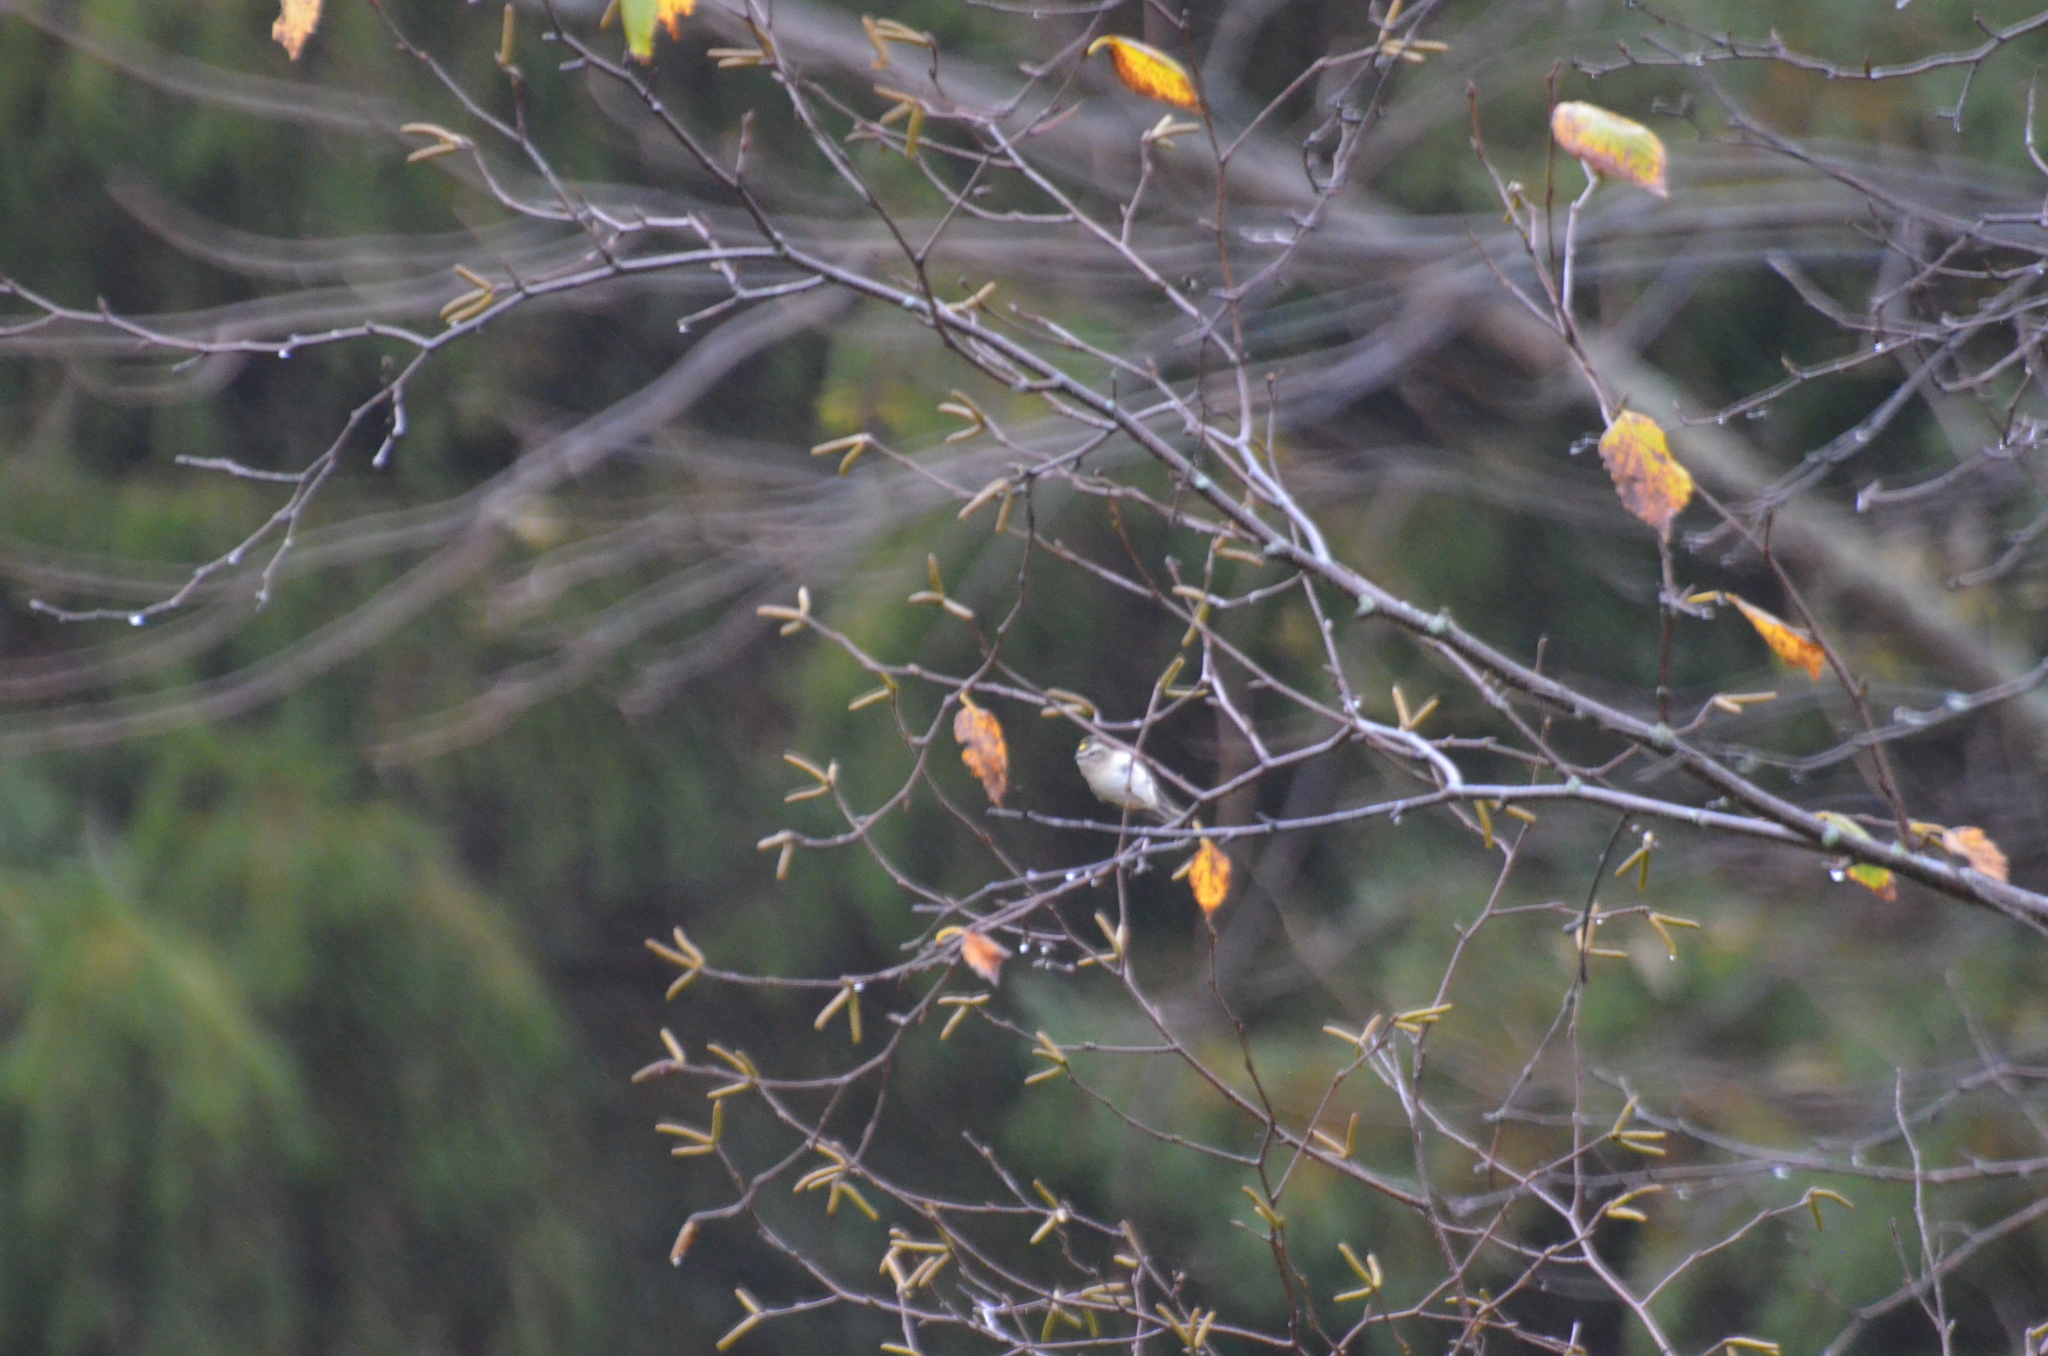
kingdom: Animalia
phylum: Chordata
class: Aves
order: Passeriformes
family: Regulidae
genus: Regulus
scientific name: Regulus satrapa
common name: Golden-crowned kinglet
